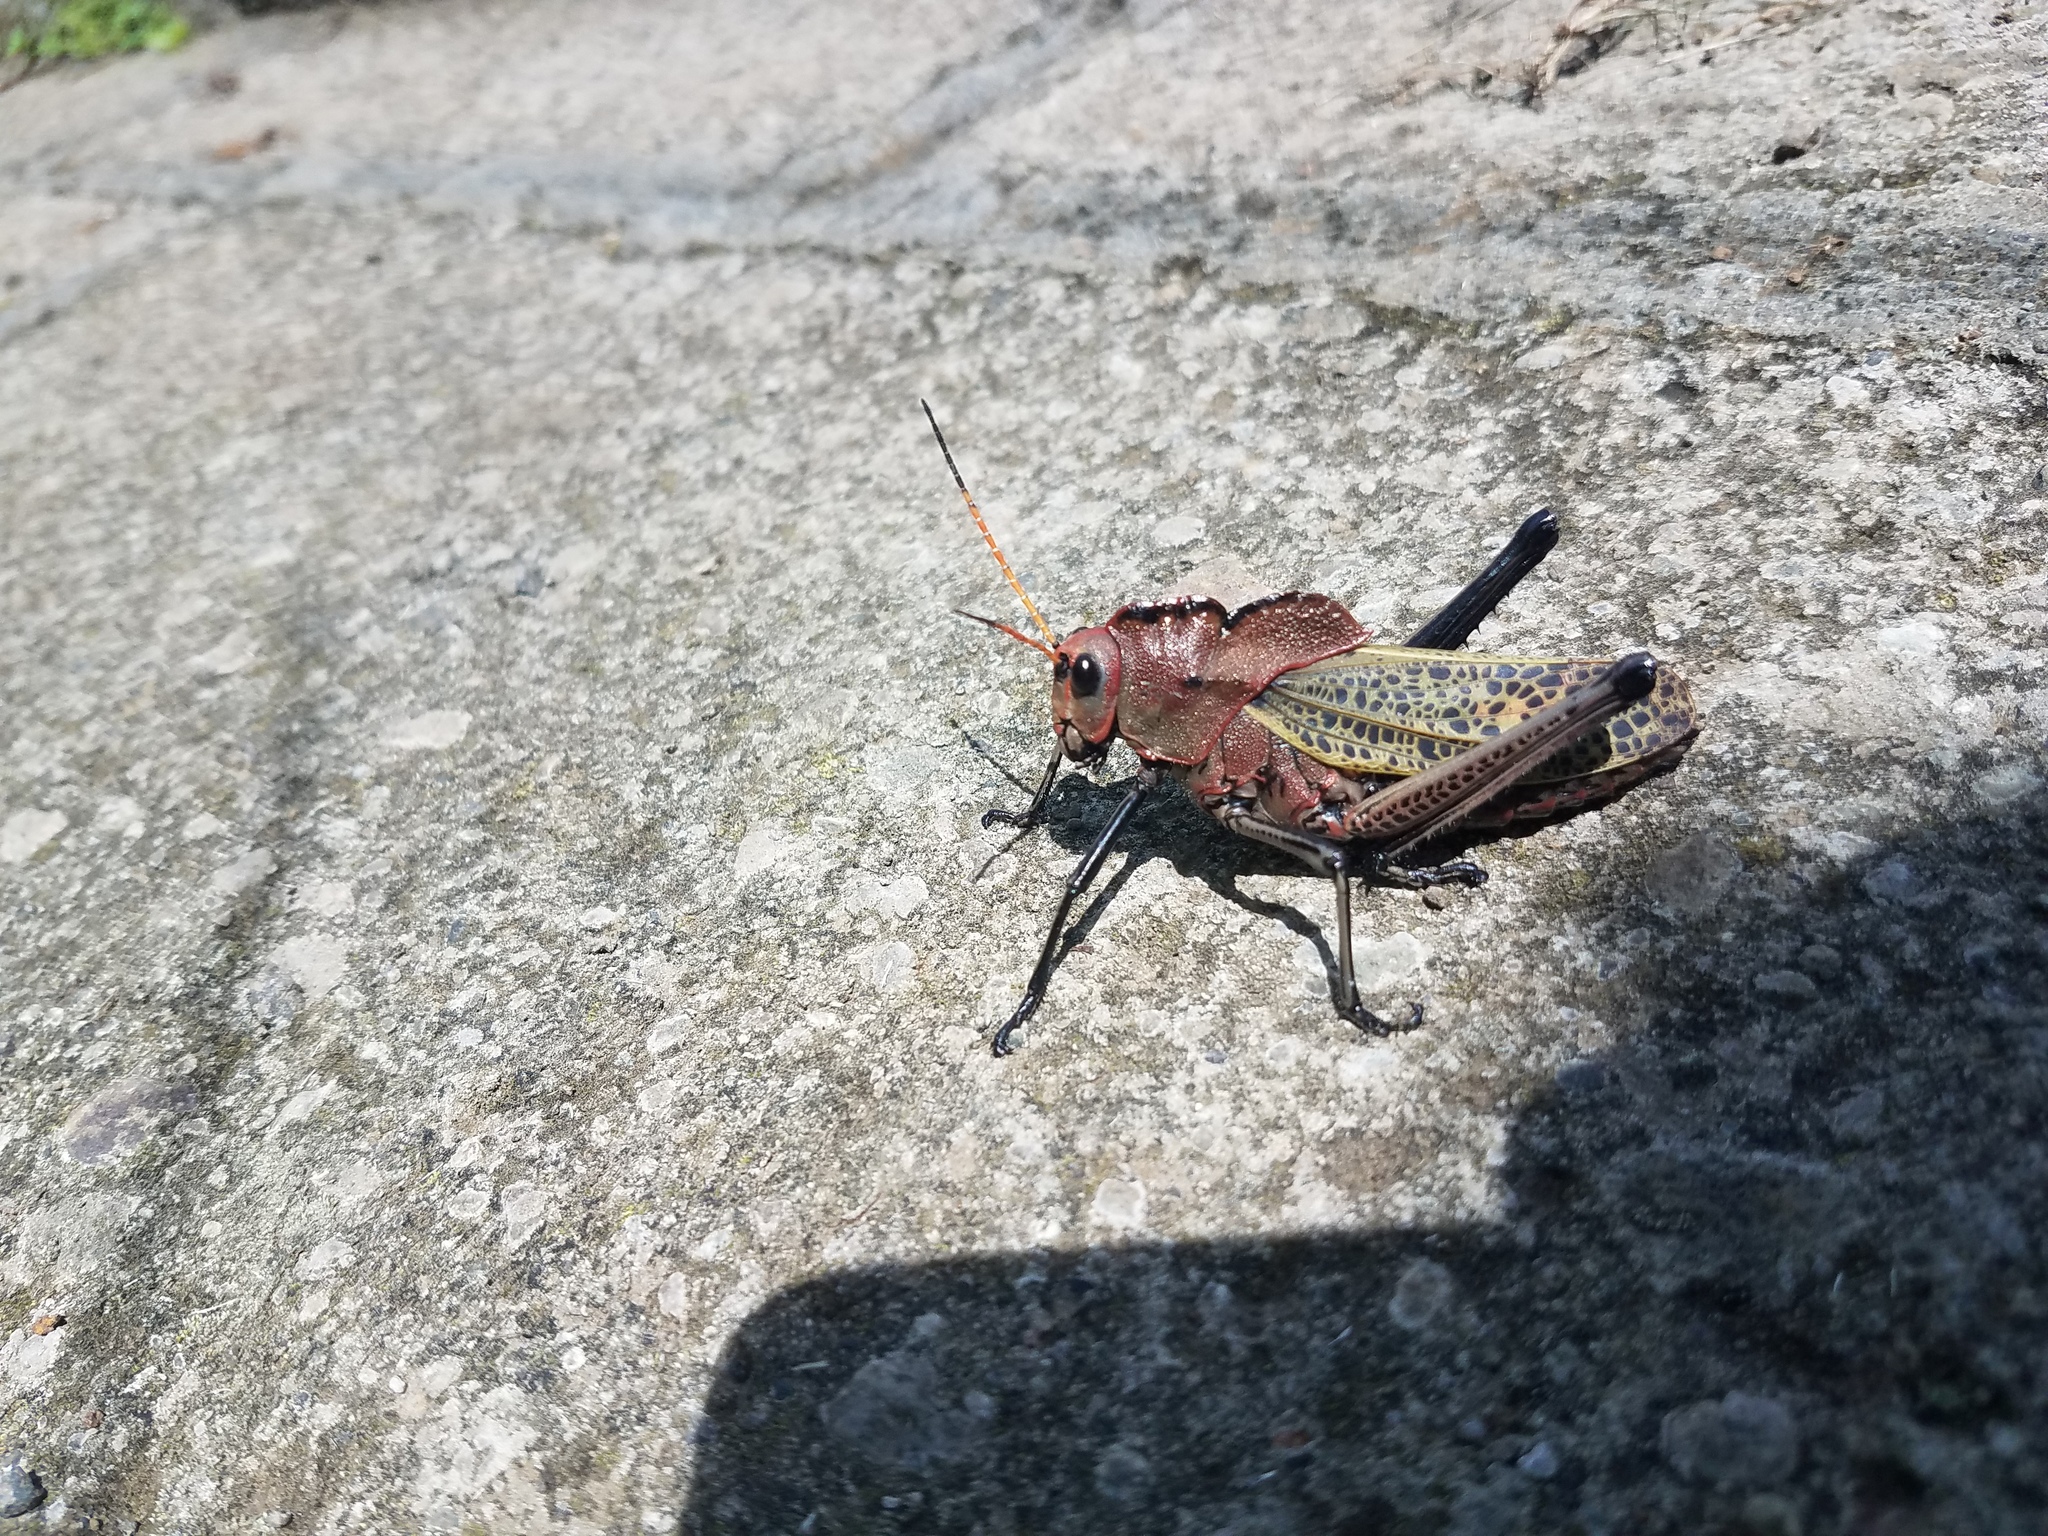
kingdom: Animalia
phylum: Arthropoda
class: Insecta
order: Orthoptera
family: Romaleidae
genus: Romalea
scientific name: Romalea
